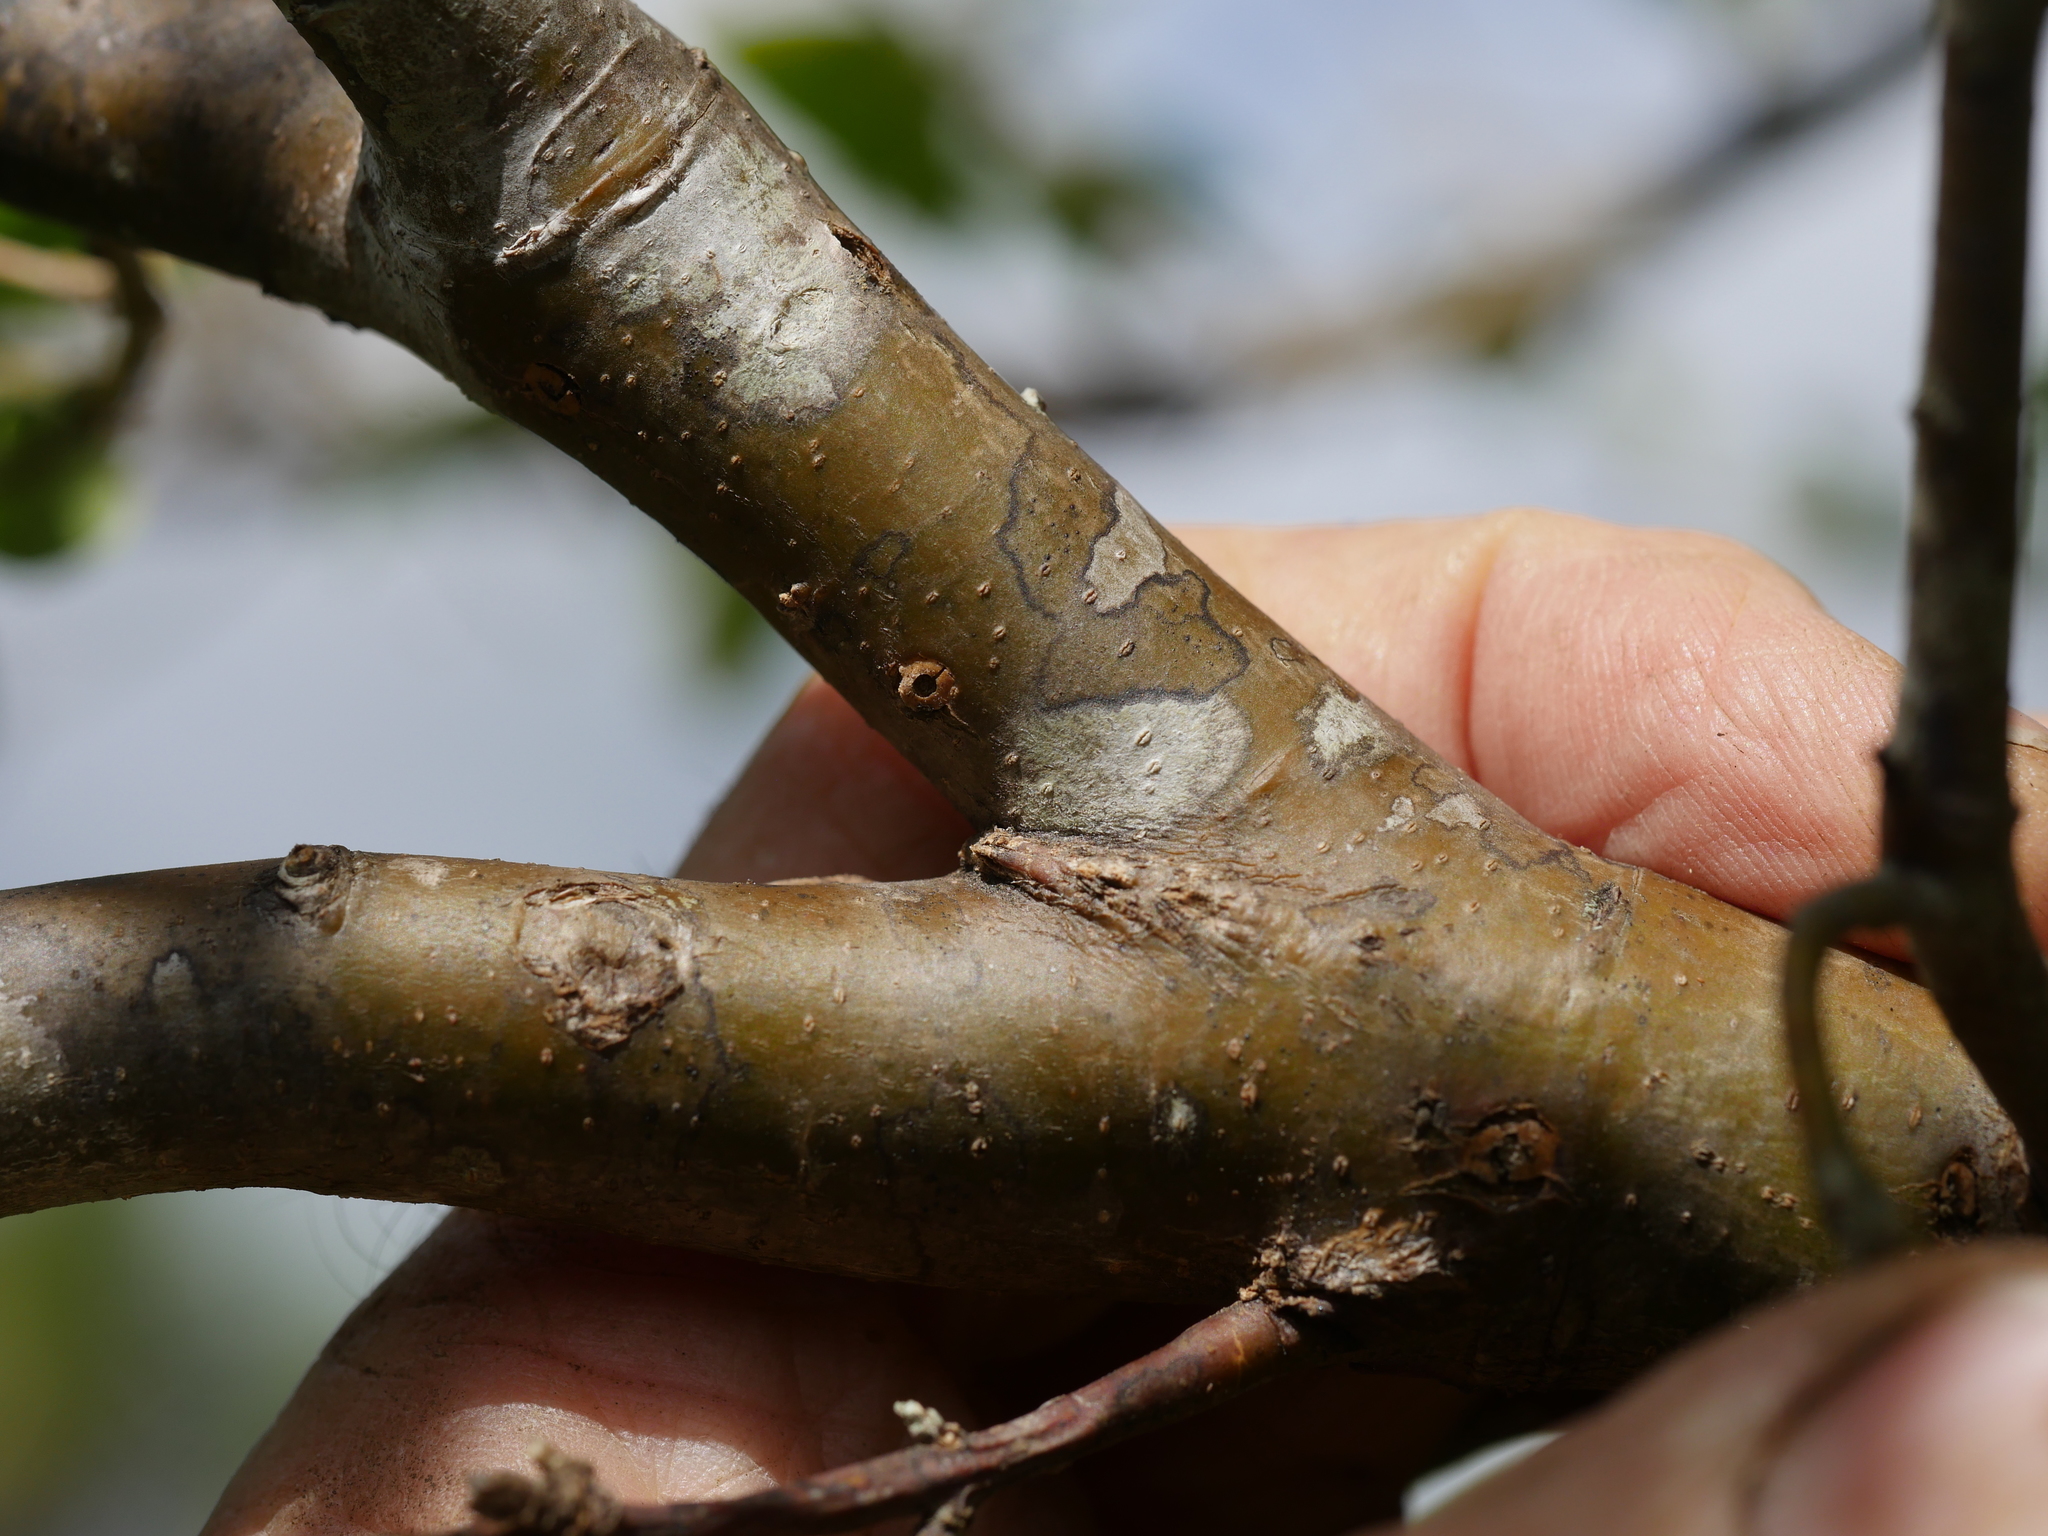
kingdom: Plantae
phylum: Tracheophyta
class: Magnoliopsida
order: Lamiales
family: Oleaceae
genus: Ligustrum
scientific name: Ligustrum sinense
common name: Chinese privet
